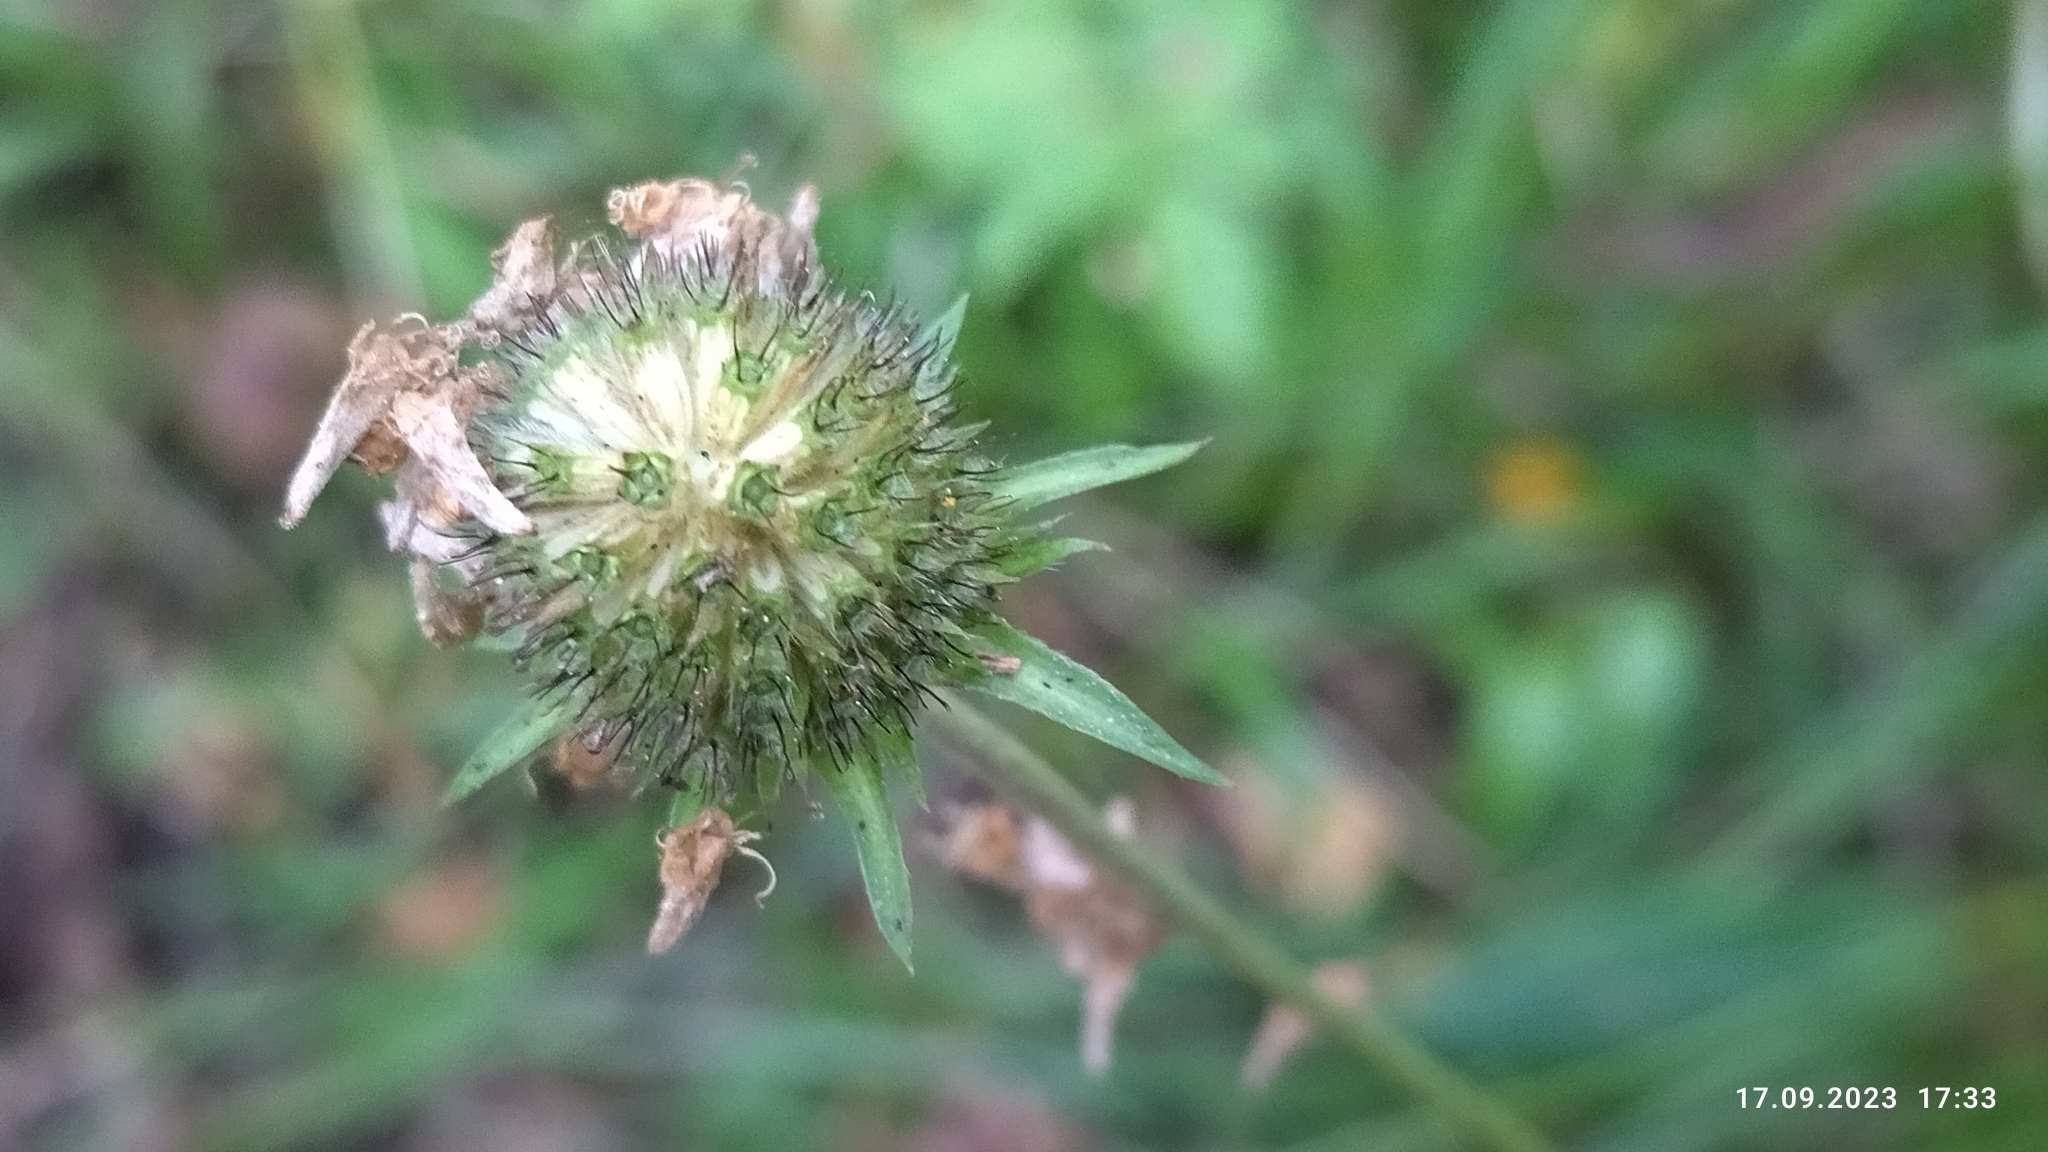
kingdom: Plantae
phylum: Tracheophyta
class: Magnoliopsida
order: Dipsacales
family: Caprifoliaceae
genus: Succisa
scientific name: Succisa pratensis
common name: Devil's-bit
